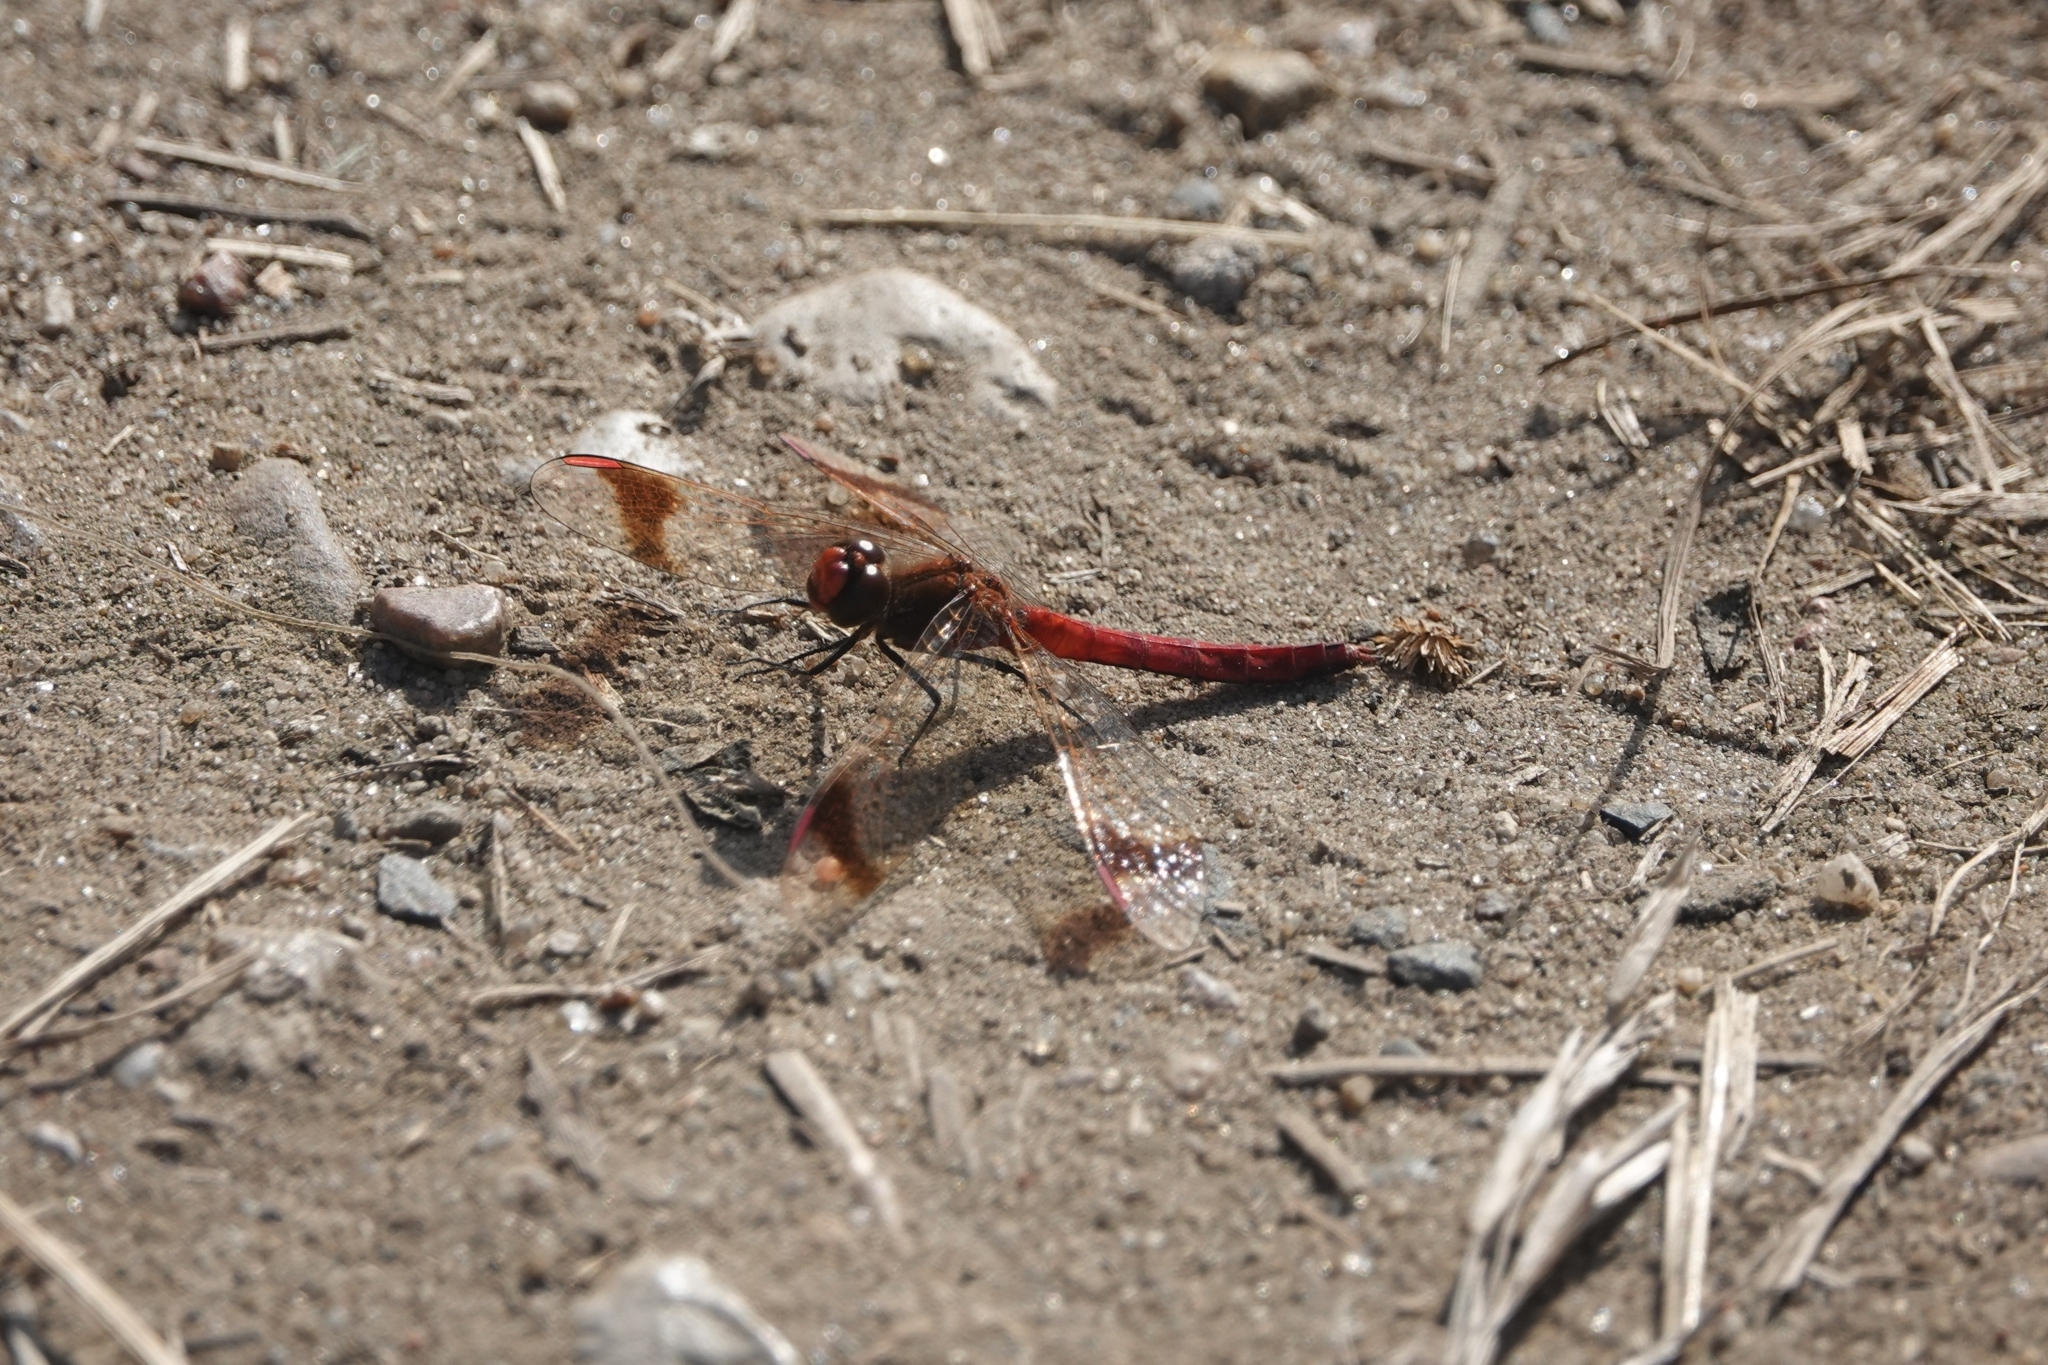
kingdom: Animalia
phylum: Arthropoda
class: Insecta
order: Odonata
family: Libellulidae
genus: Sympetrum
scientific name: Sympetrum pedemontanum
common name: Banded darter
